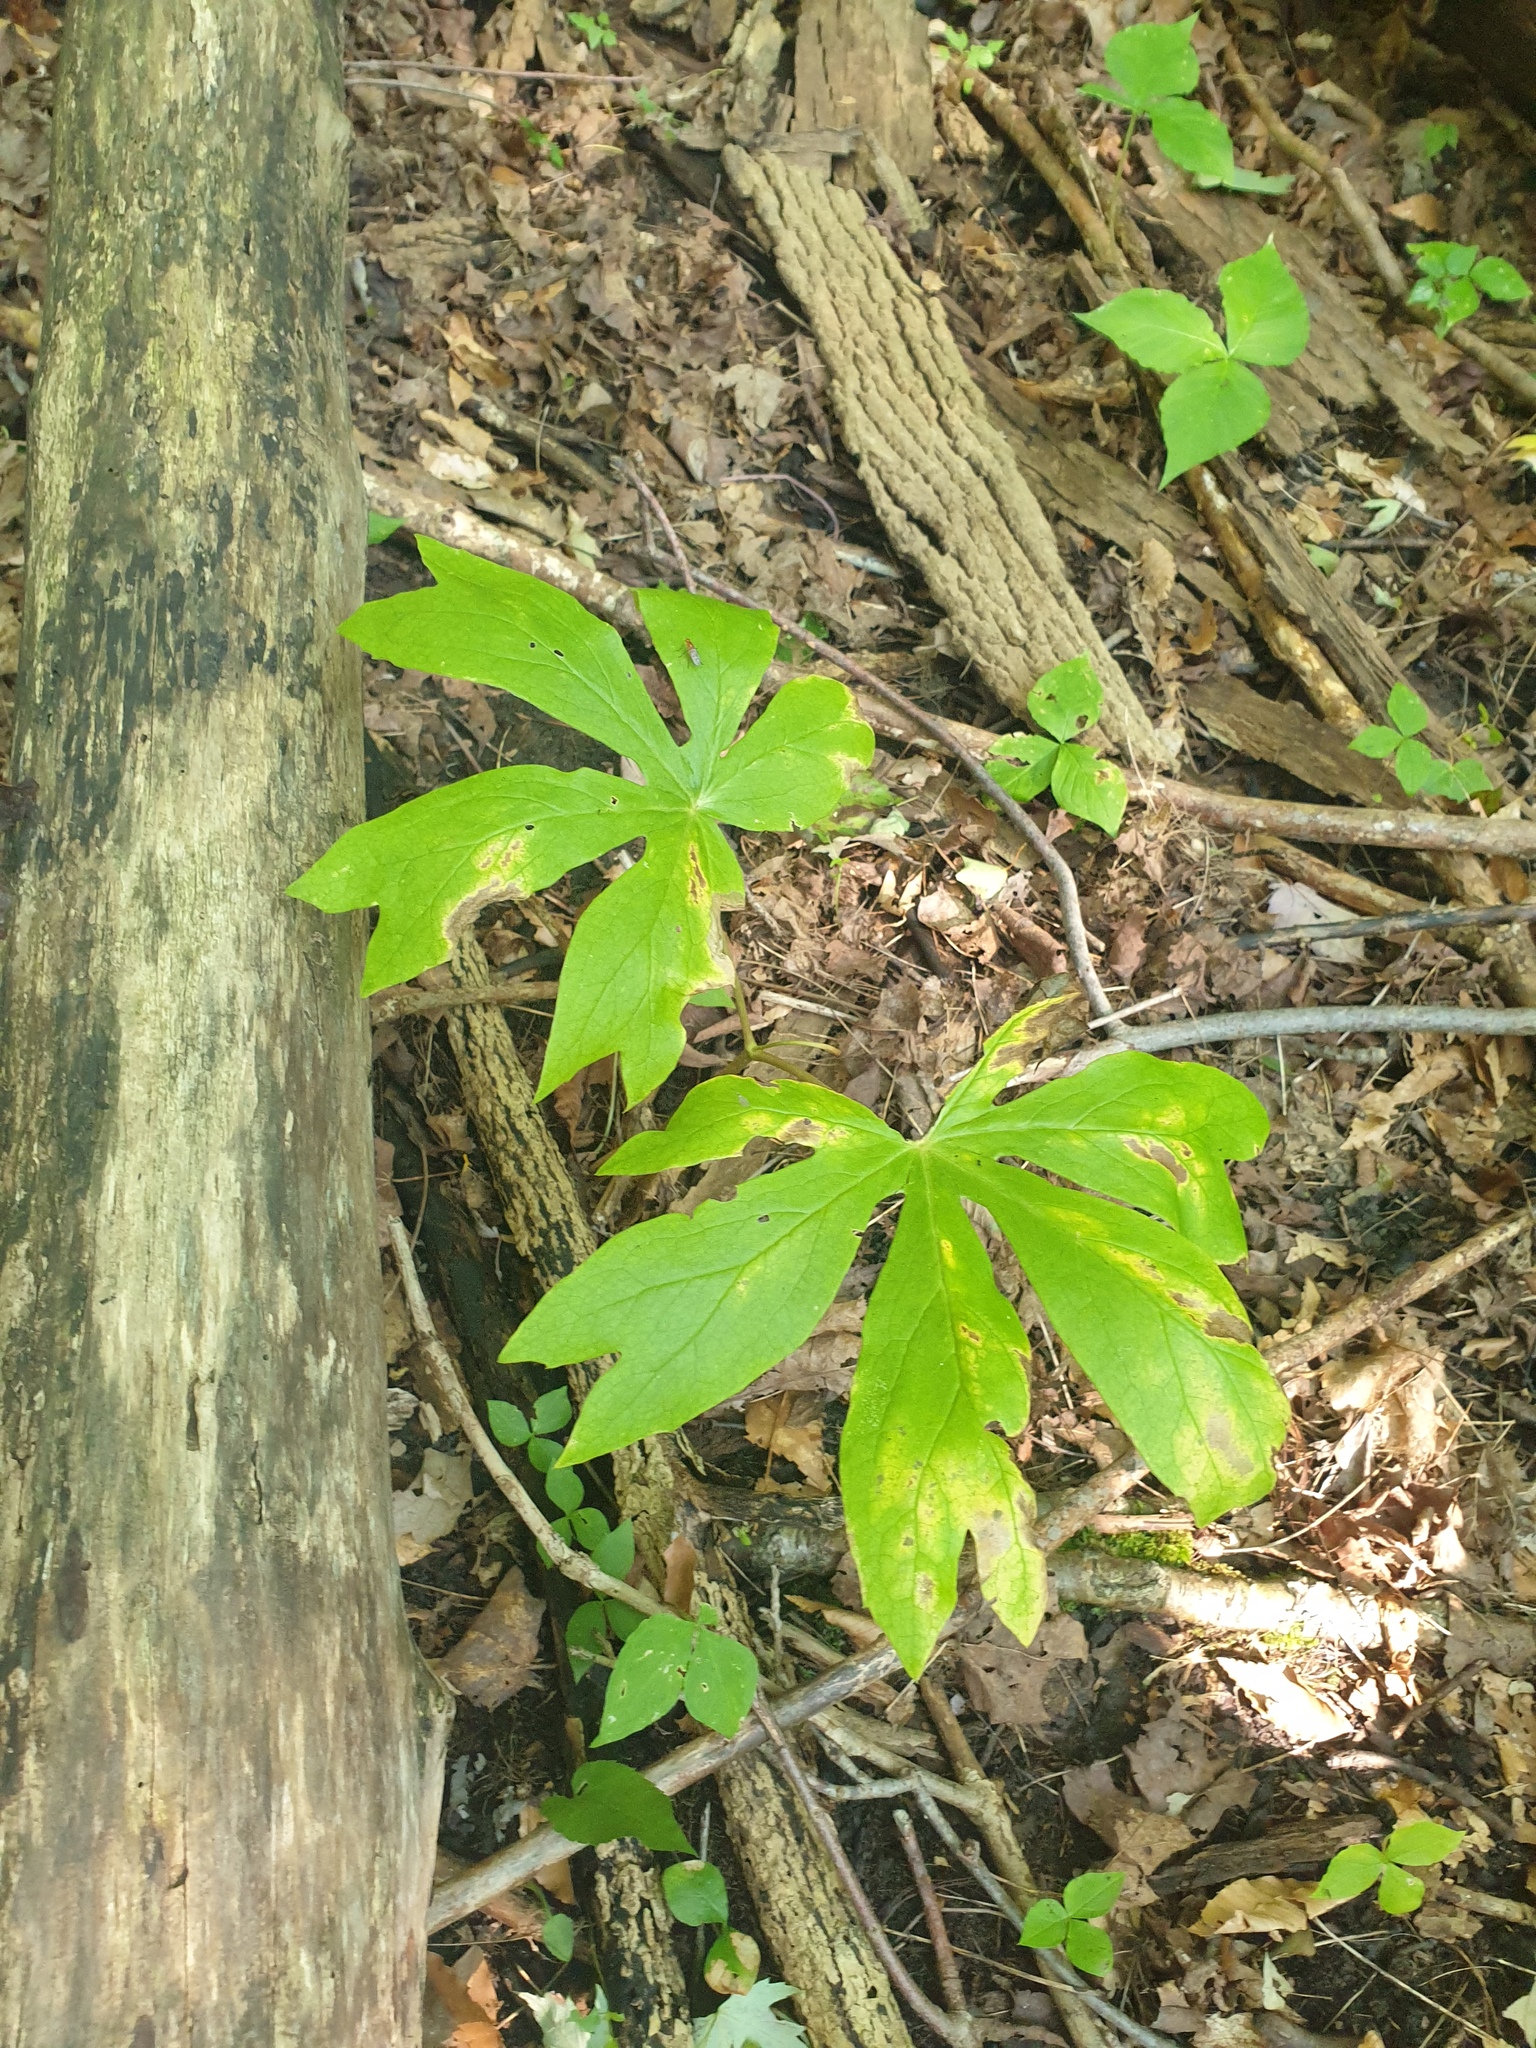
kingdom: Plantae
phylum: Tracheophyta
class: Magnoliopsida
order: Ranunculales
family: Berberidaceae
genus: Podophyllum
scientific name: Podophyllum peltatum
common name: Wild mandrake
